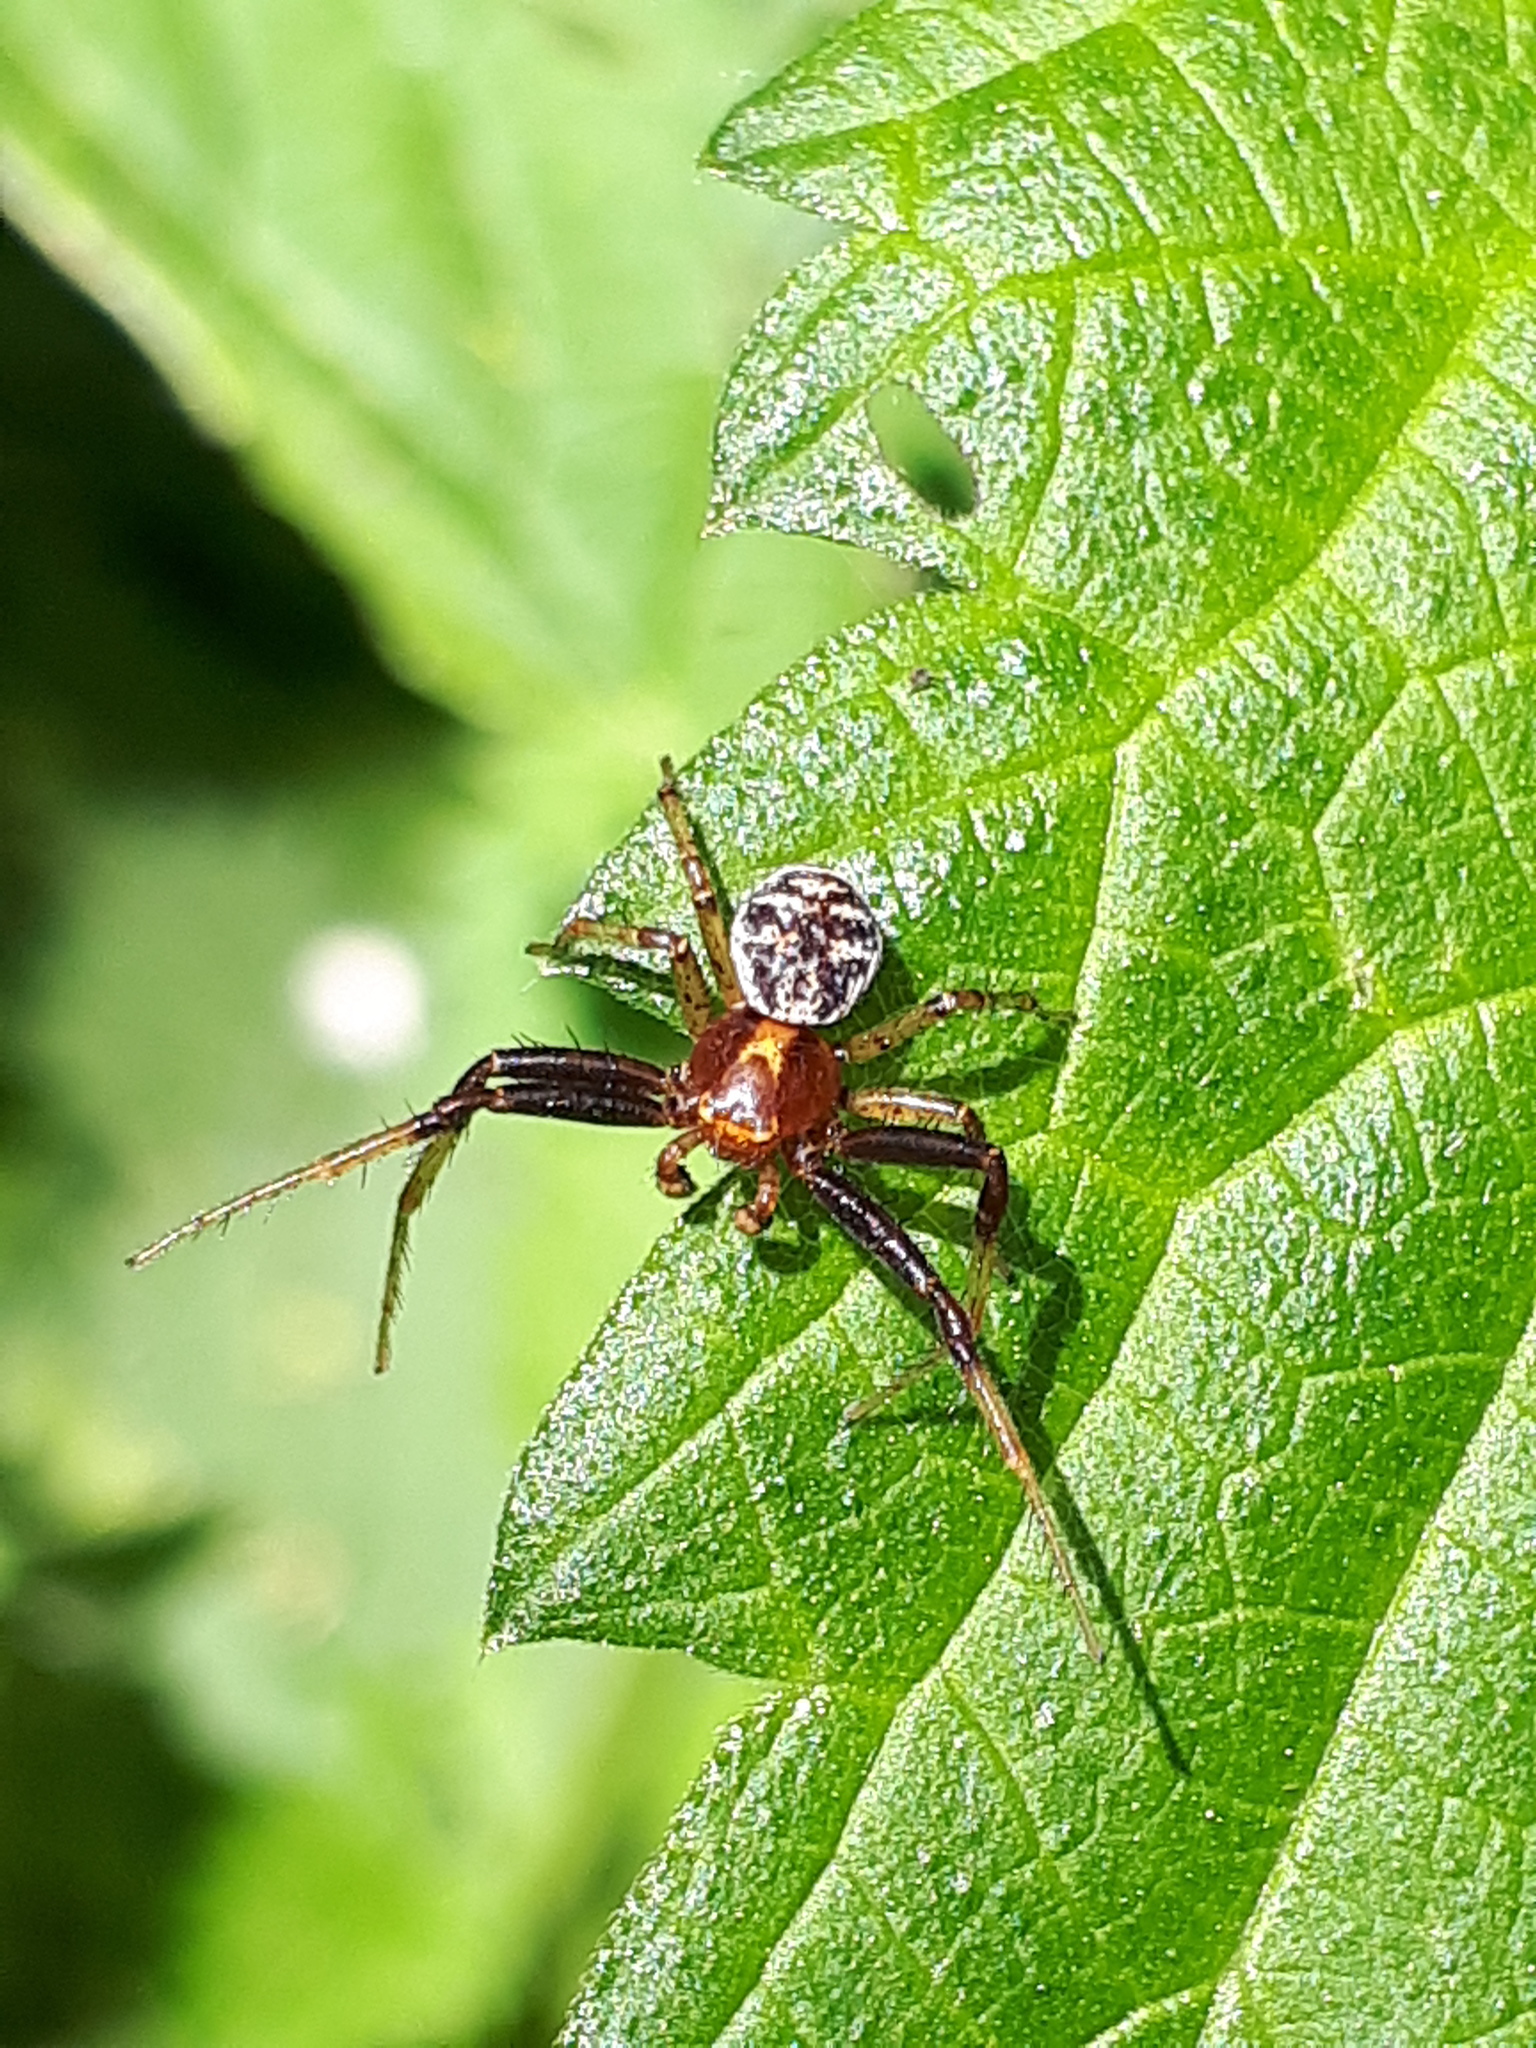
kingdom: Animalia
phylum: Arthropoda
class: Arachnida
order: Araneae
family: Thomisidae
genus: Xysticus
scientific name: Xysticus lanio
